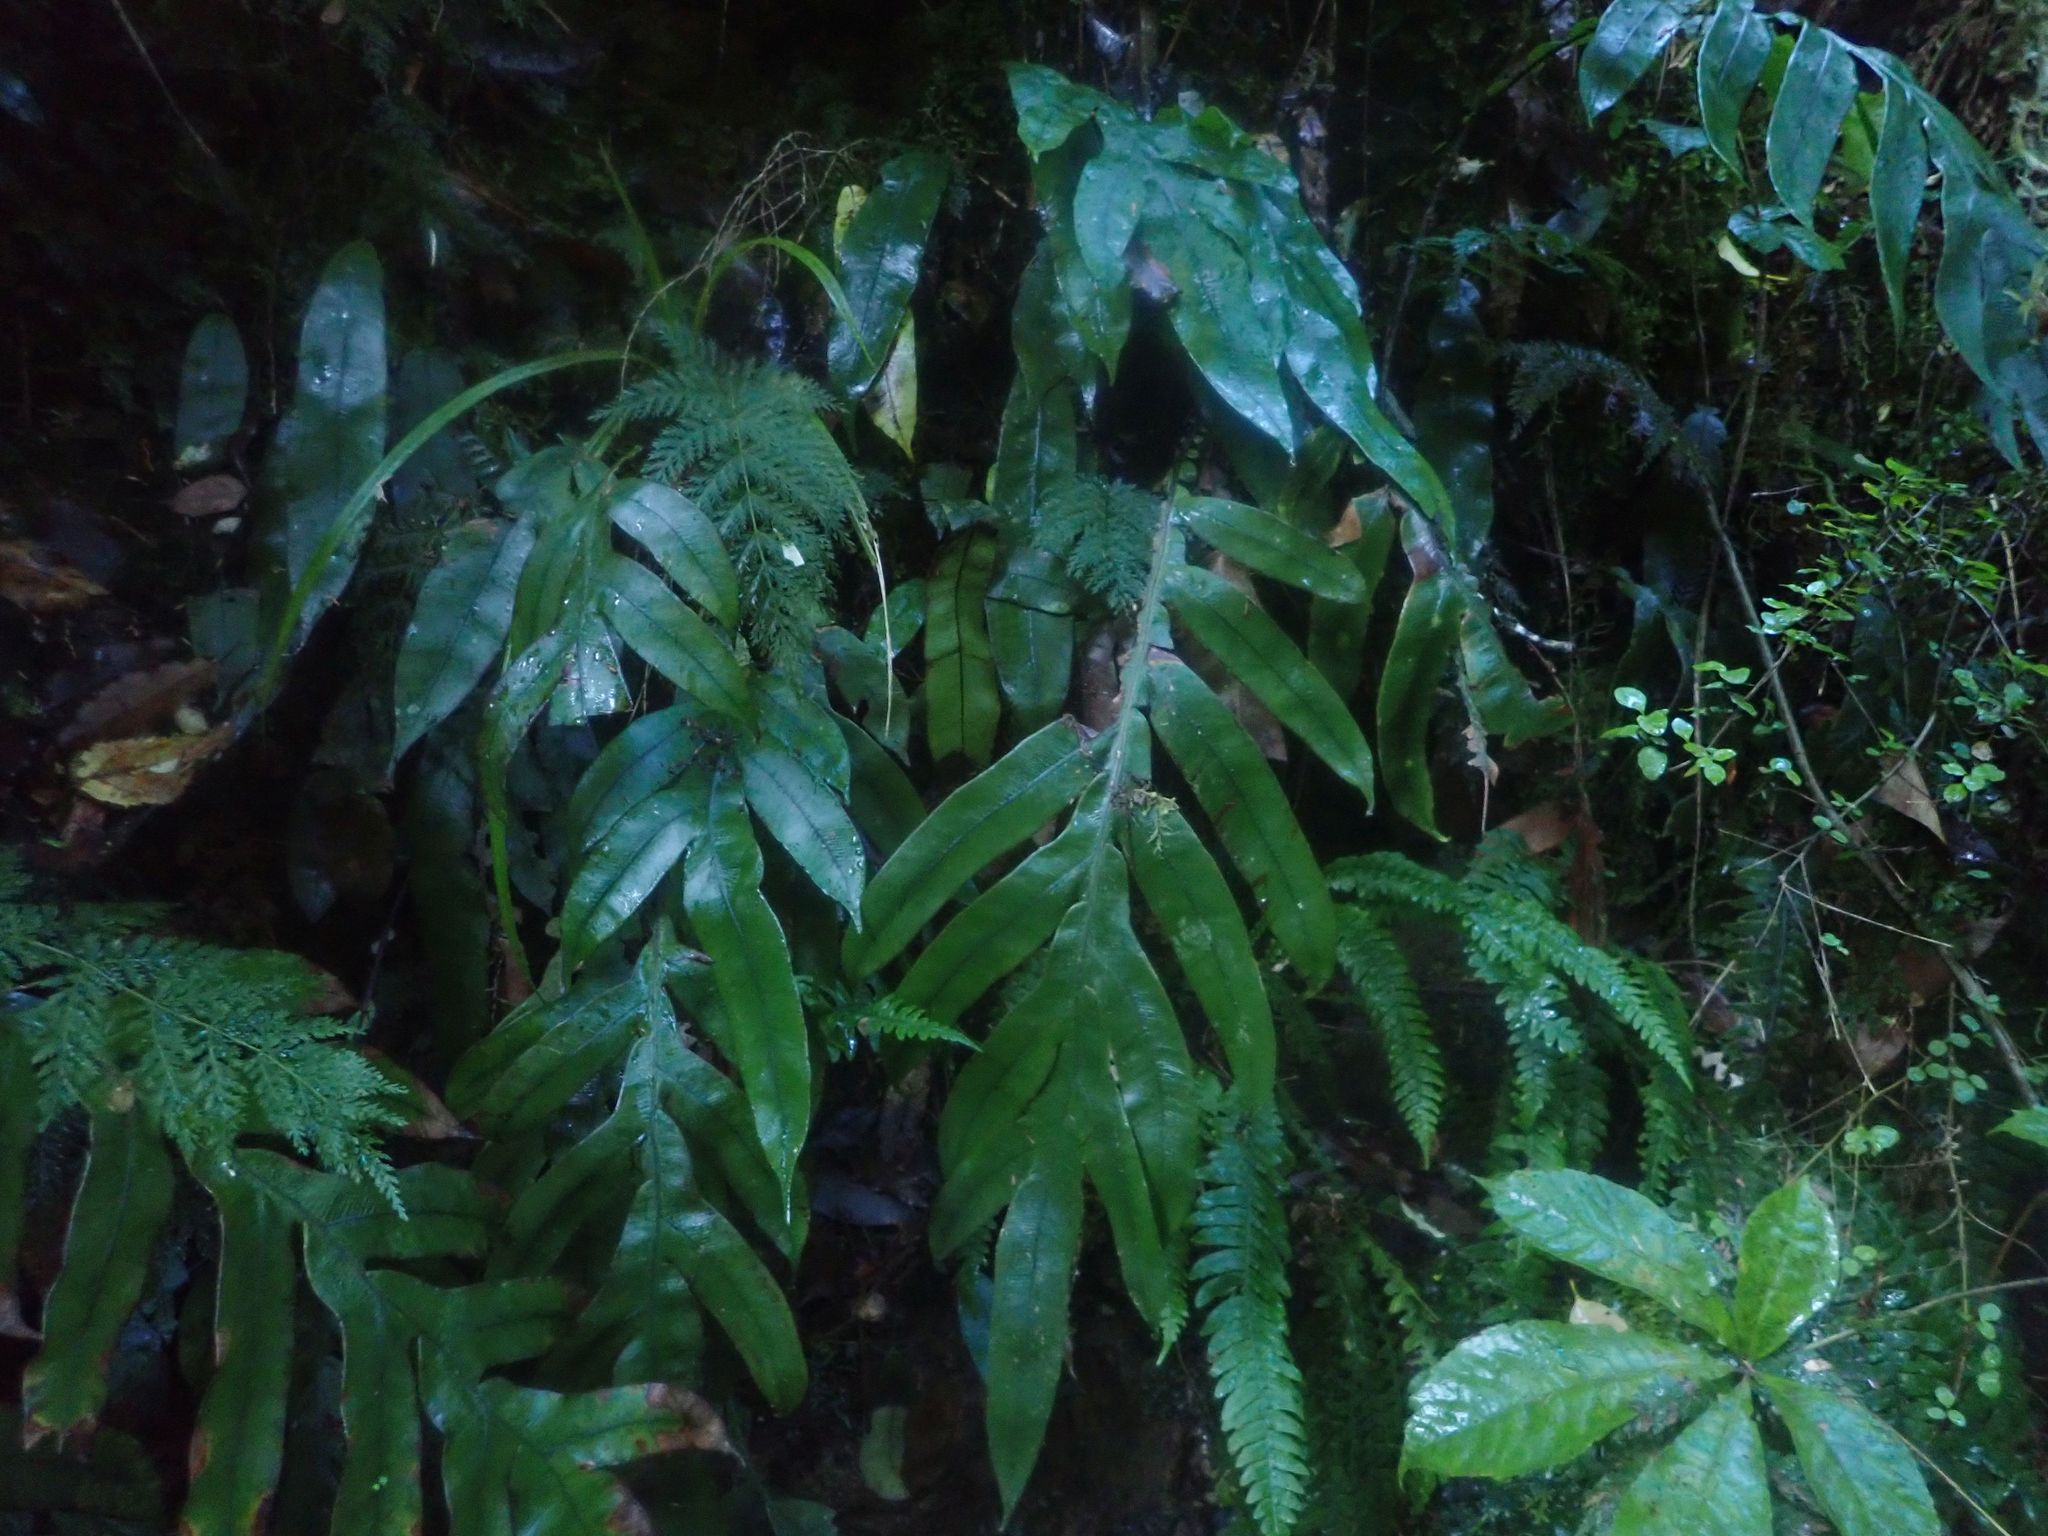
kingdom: Plantae
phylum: Tracheophyta
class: Polypodiopsida
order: Polypodiales
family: Blechnaceae
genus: Austroblechnum
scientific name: Austroblechnum colensoi
